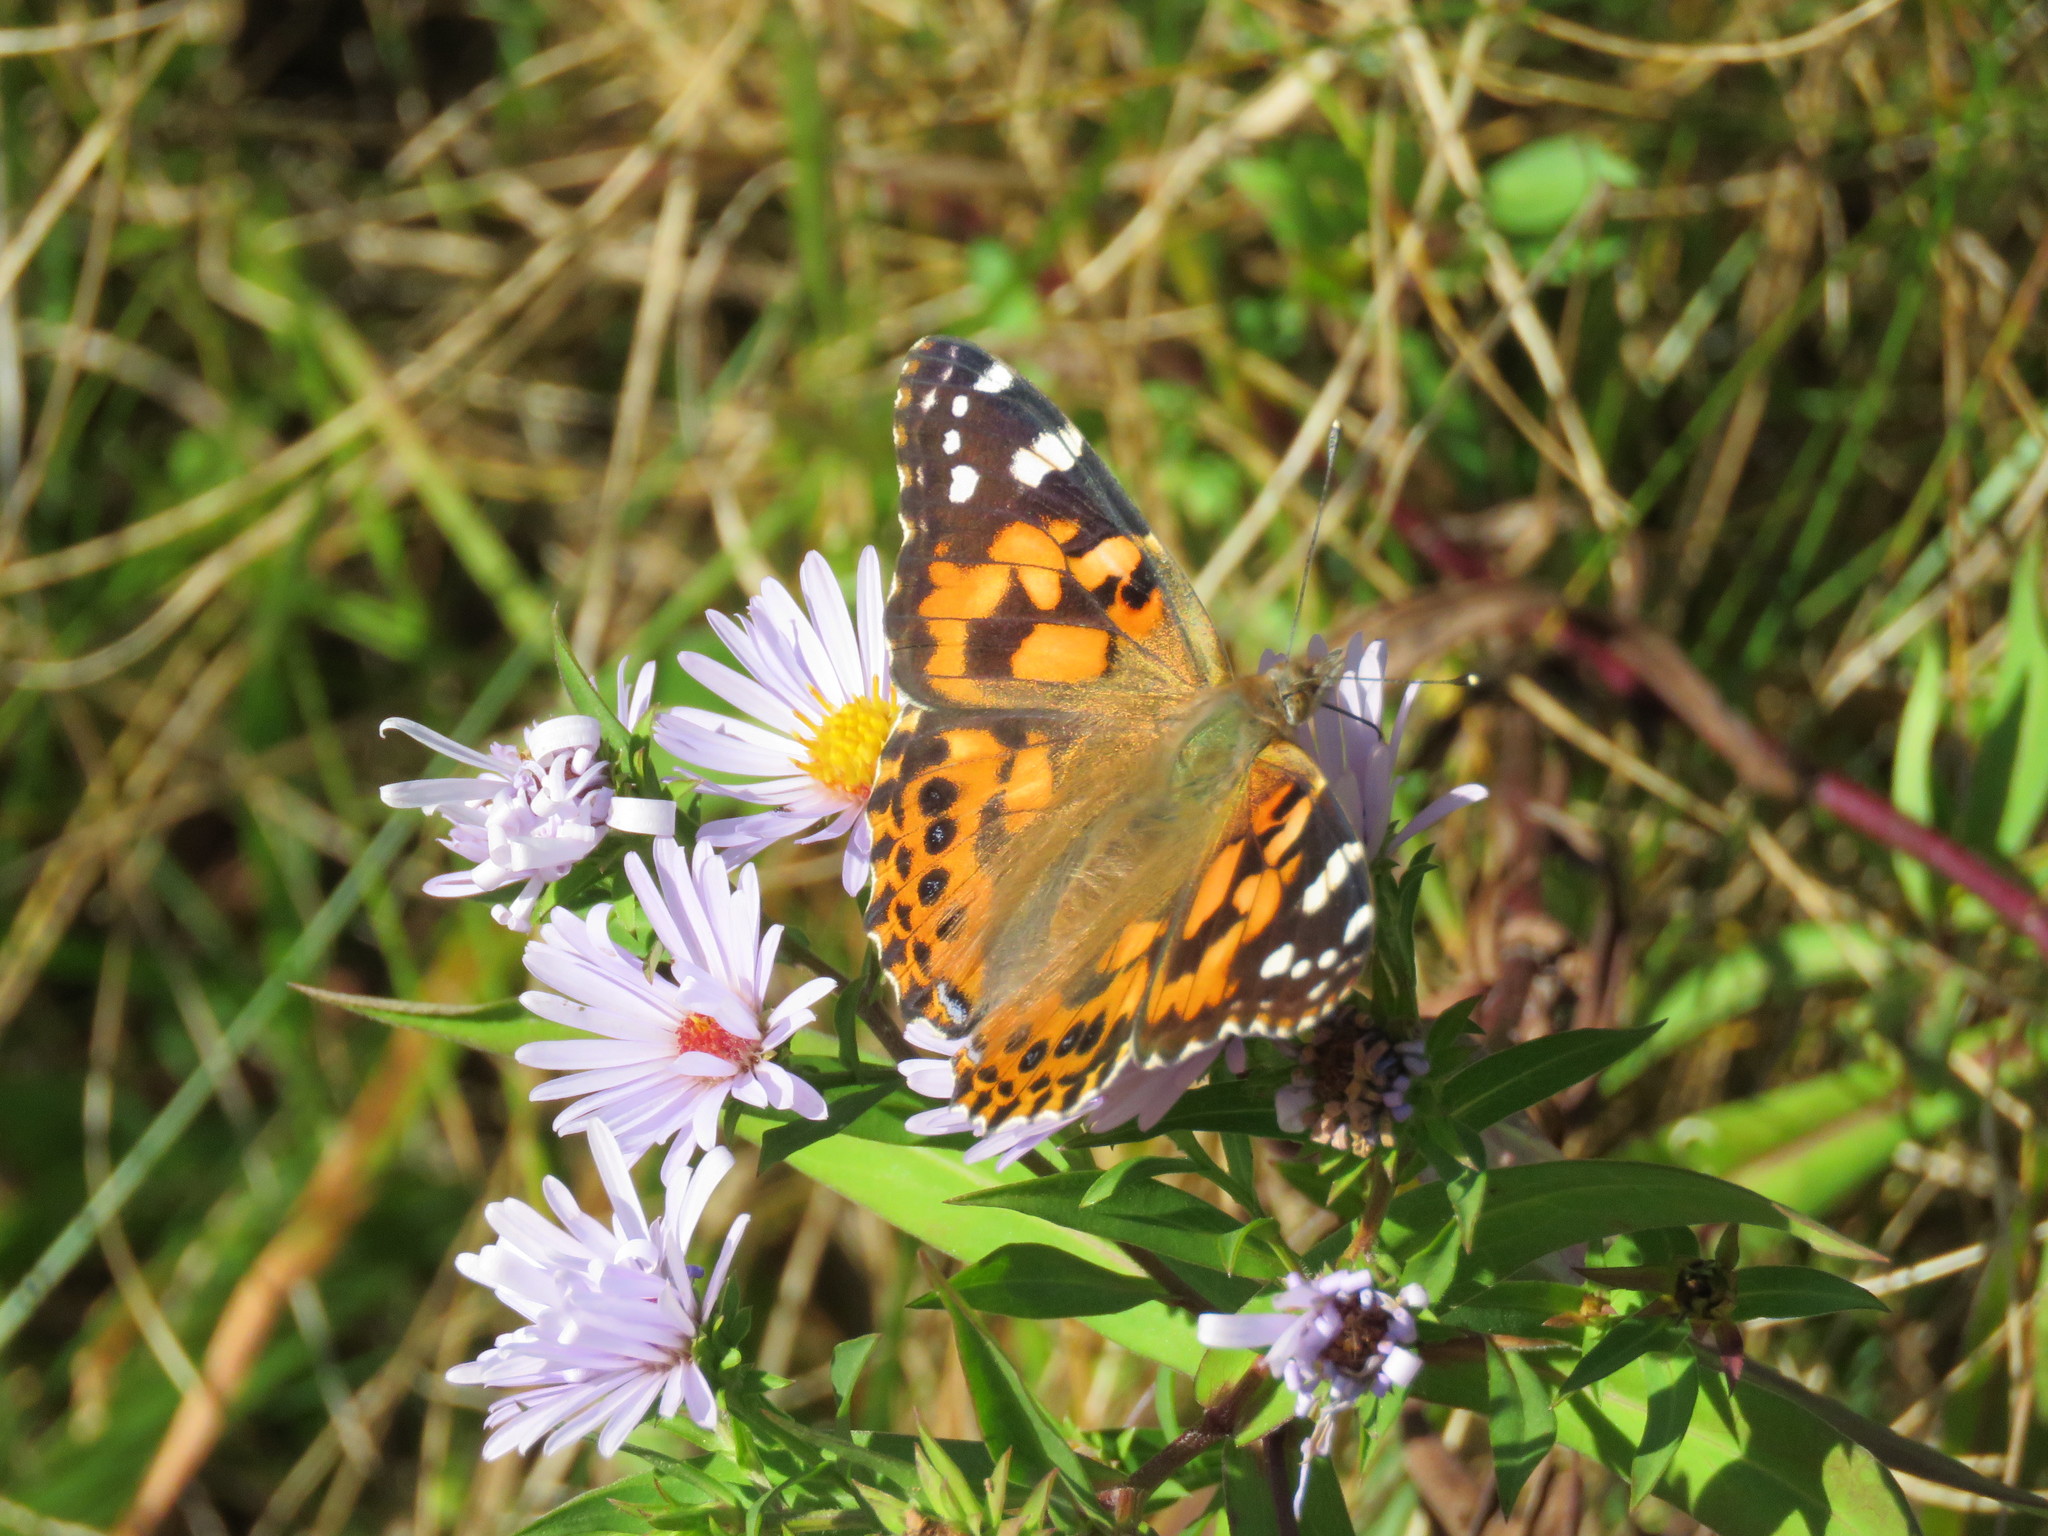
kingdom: Animalia
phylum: Arthropoda
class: Insecta
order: Lepidoptera
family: Nymphalidae
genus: Vanessa
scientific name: Vanessa cardui
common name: Painted lady
